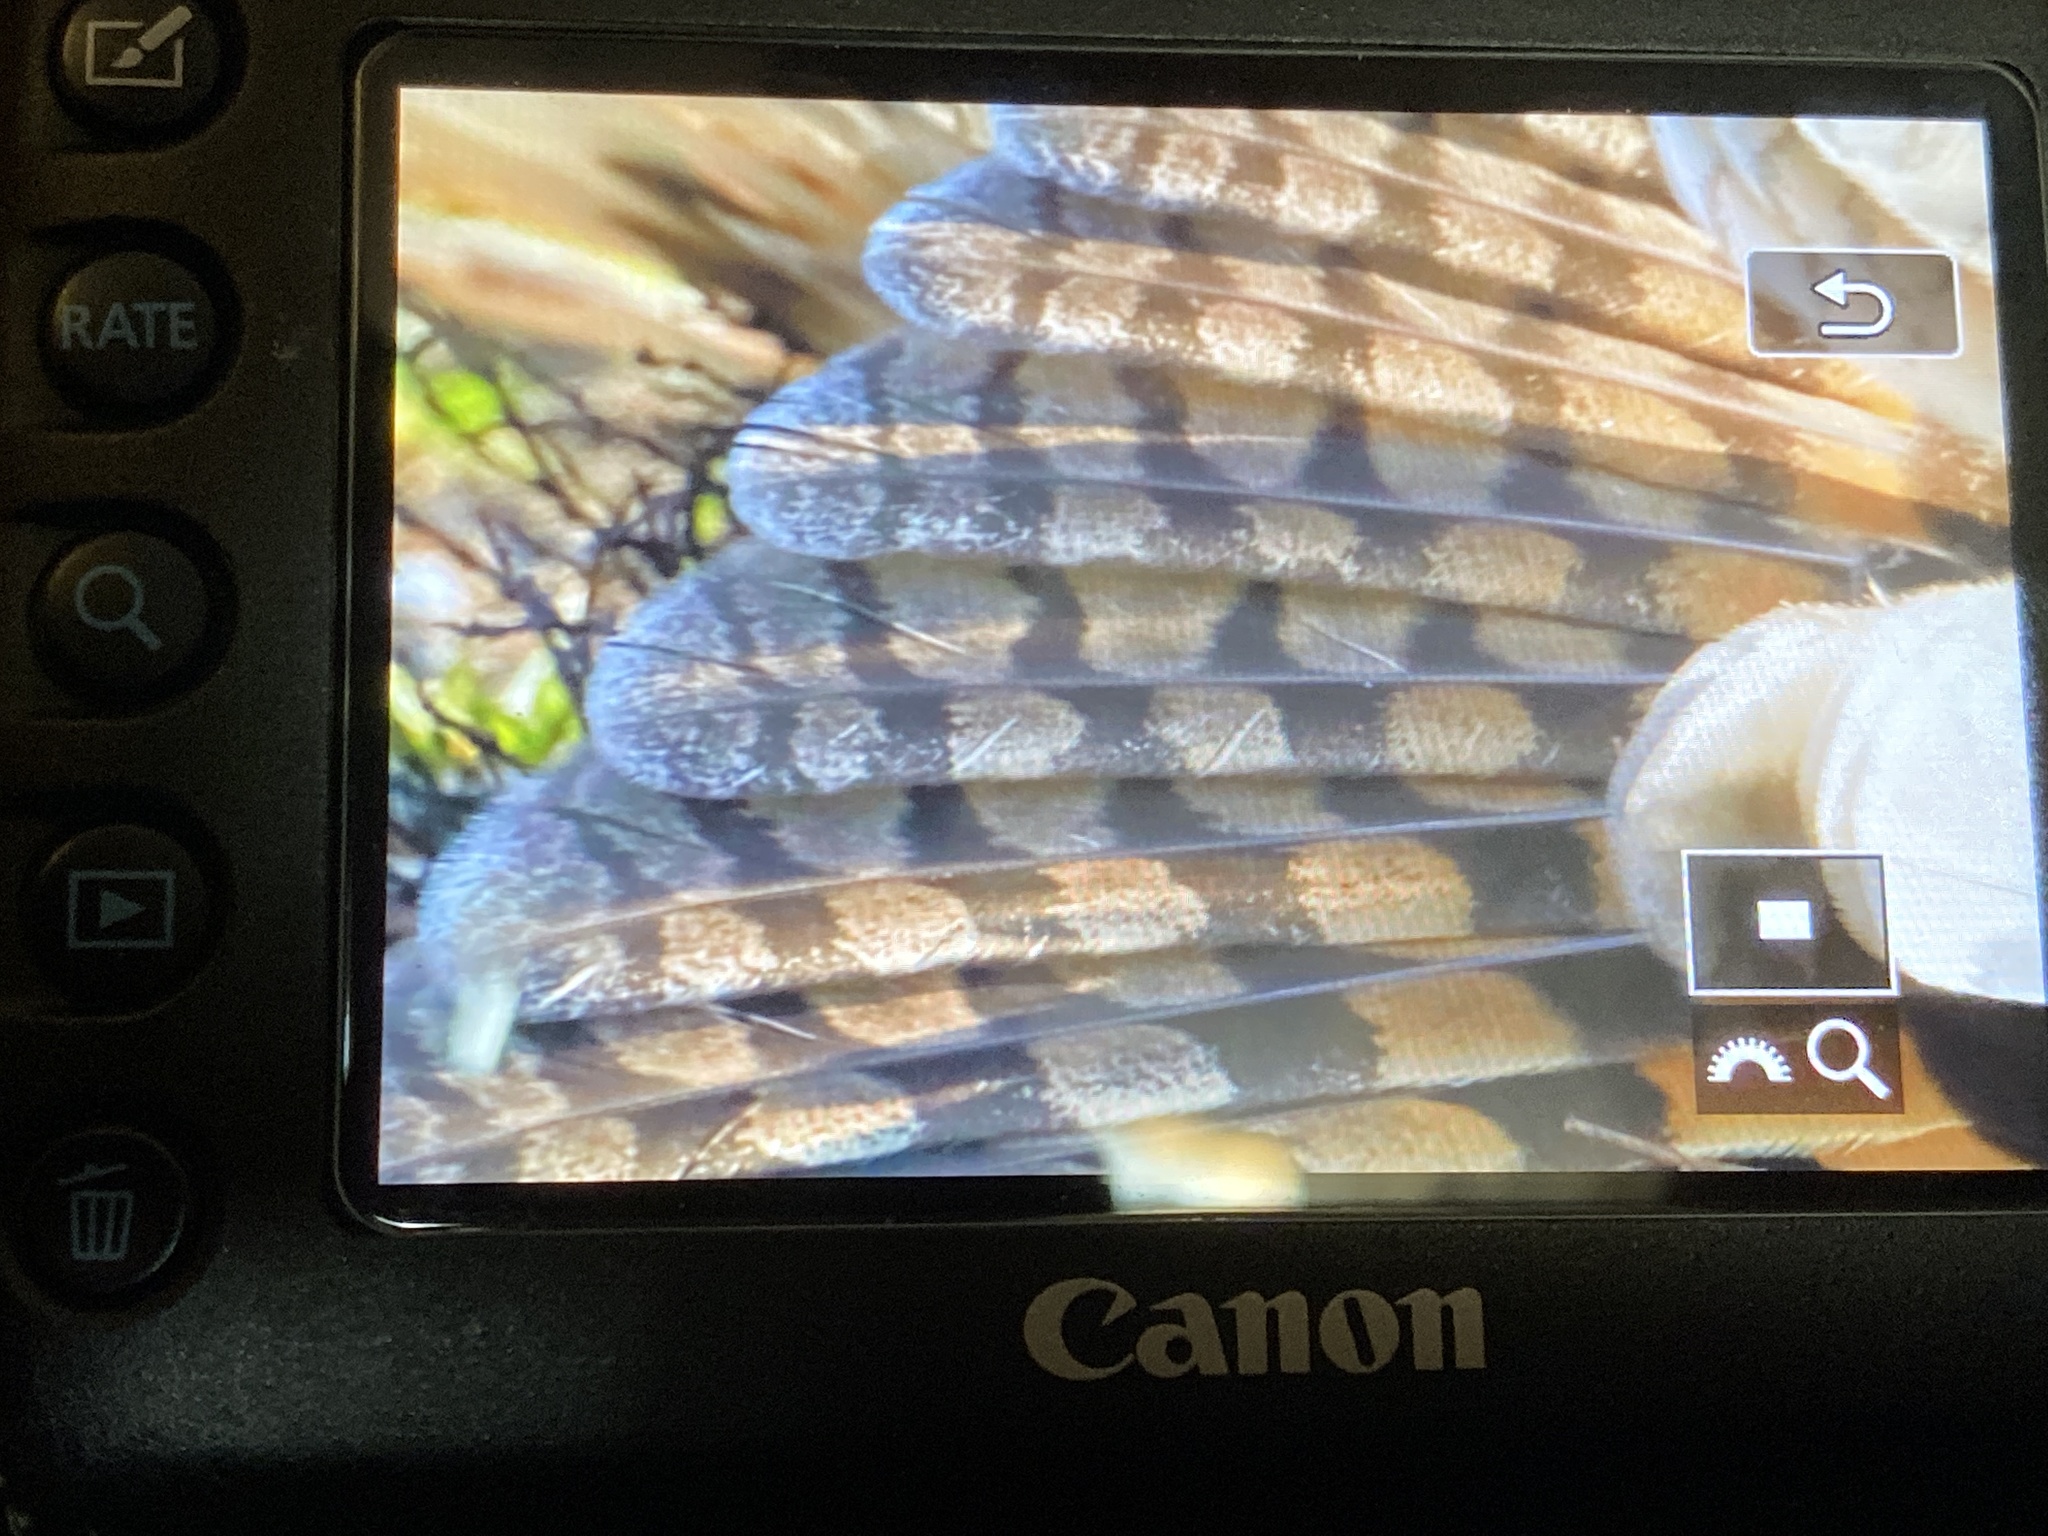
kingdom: Animalia
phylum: Chordata
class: Aves
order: Strigiformes
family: Strigidae
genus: Asio
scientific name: Asio otus
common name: Long-eared owl
